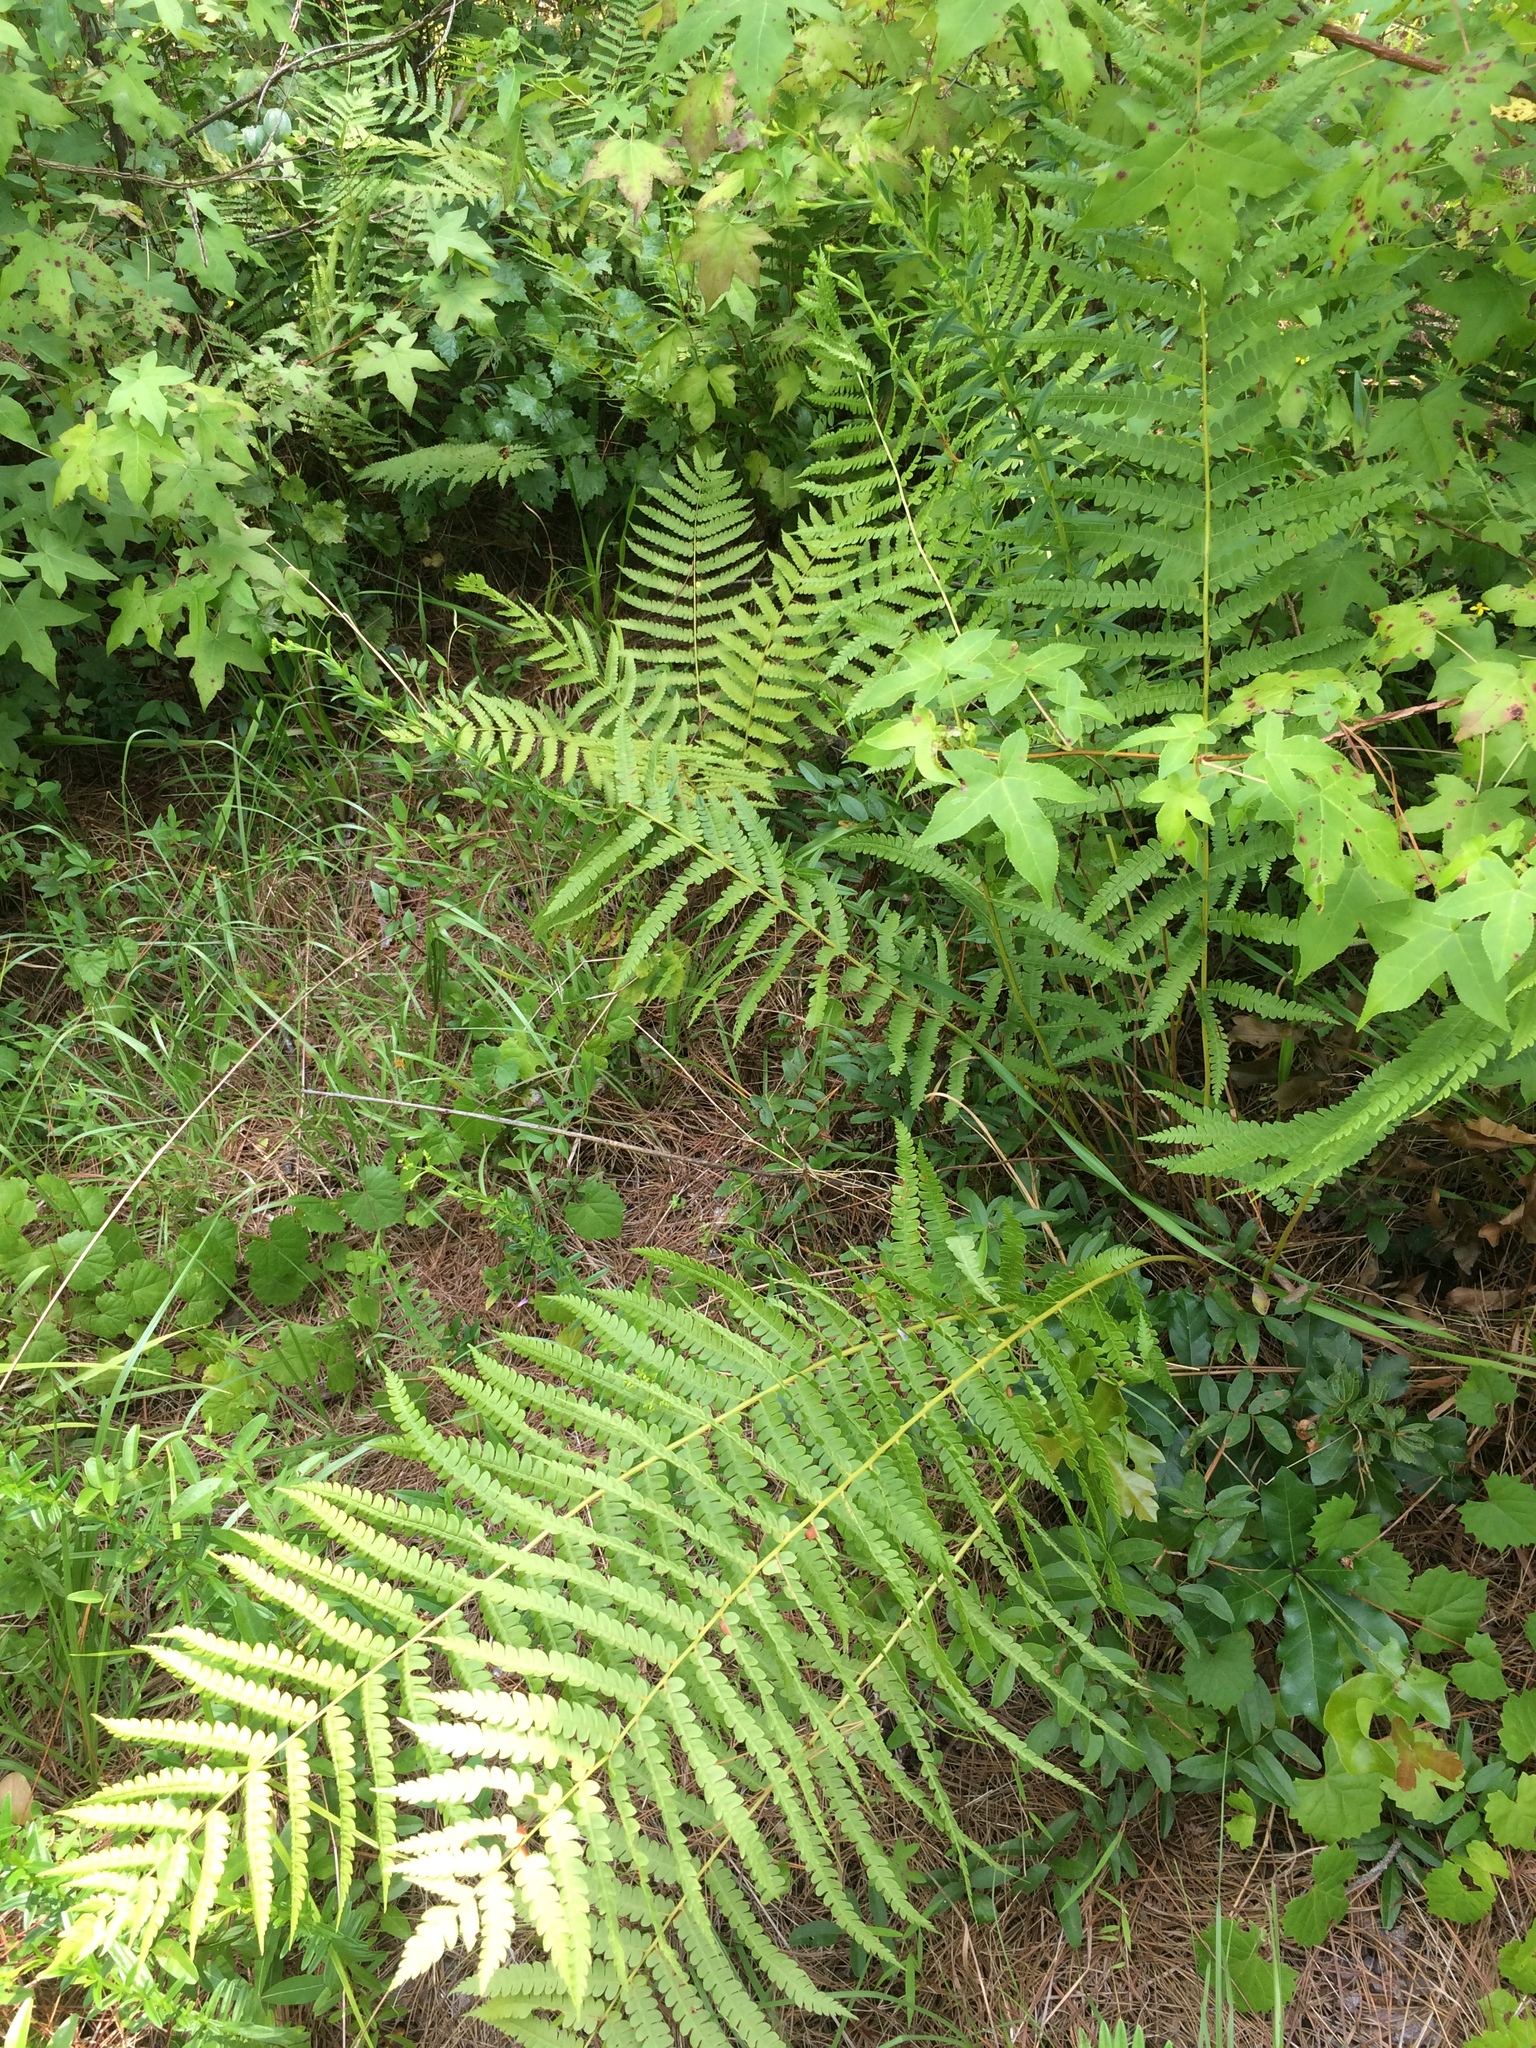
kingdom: Plantae
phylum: Tracheophyta
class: Polypodiopsida
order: Osmundales
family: Osmundaceae
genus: Osmundastrum
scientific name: Osmundastrum cinnamomeum
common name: Cinnamon fern
